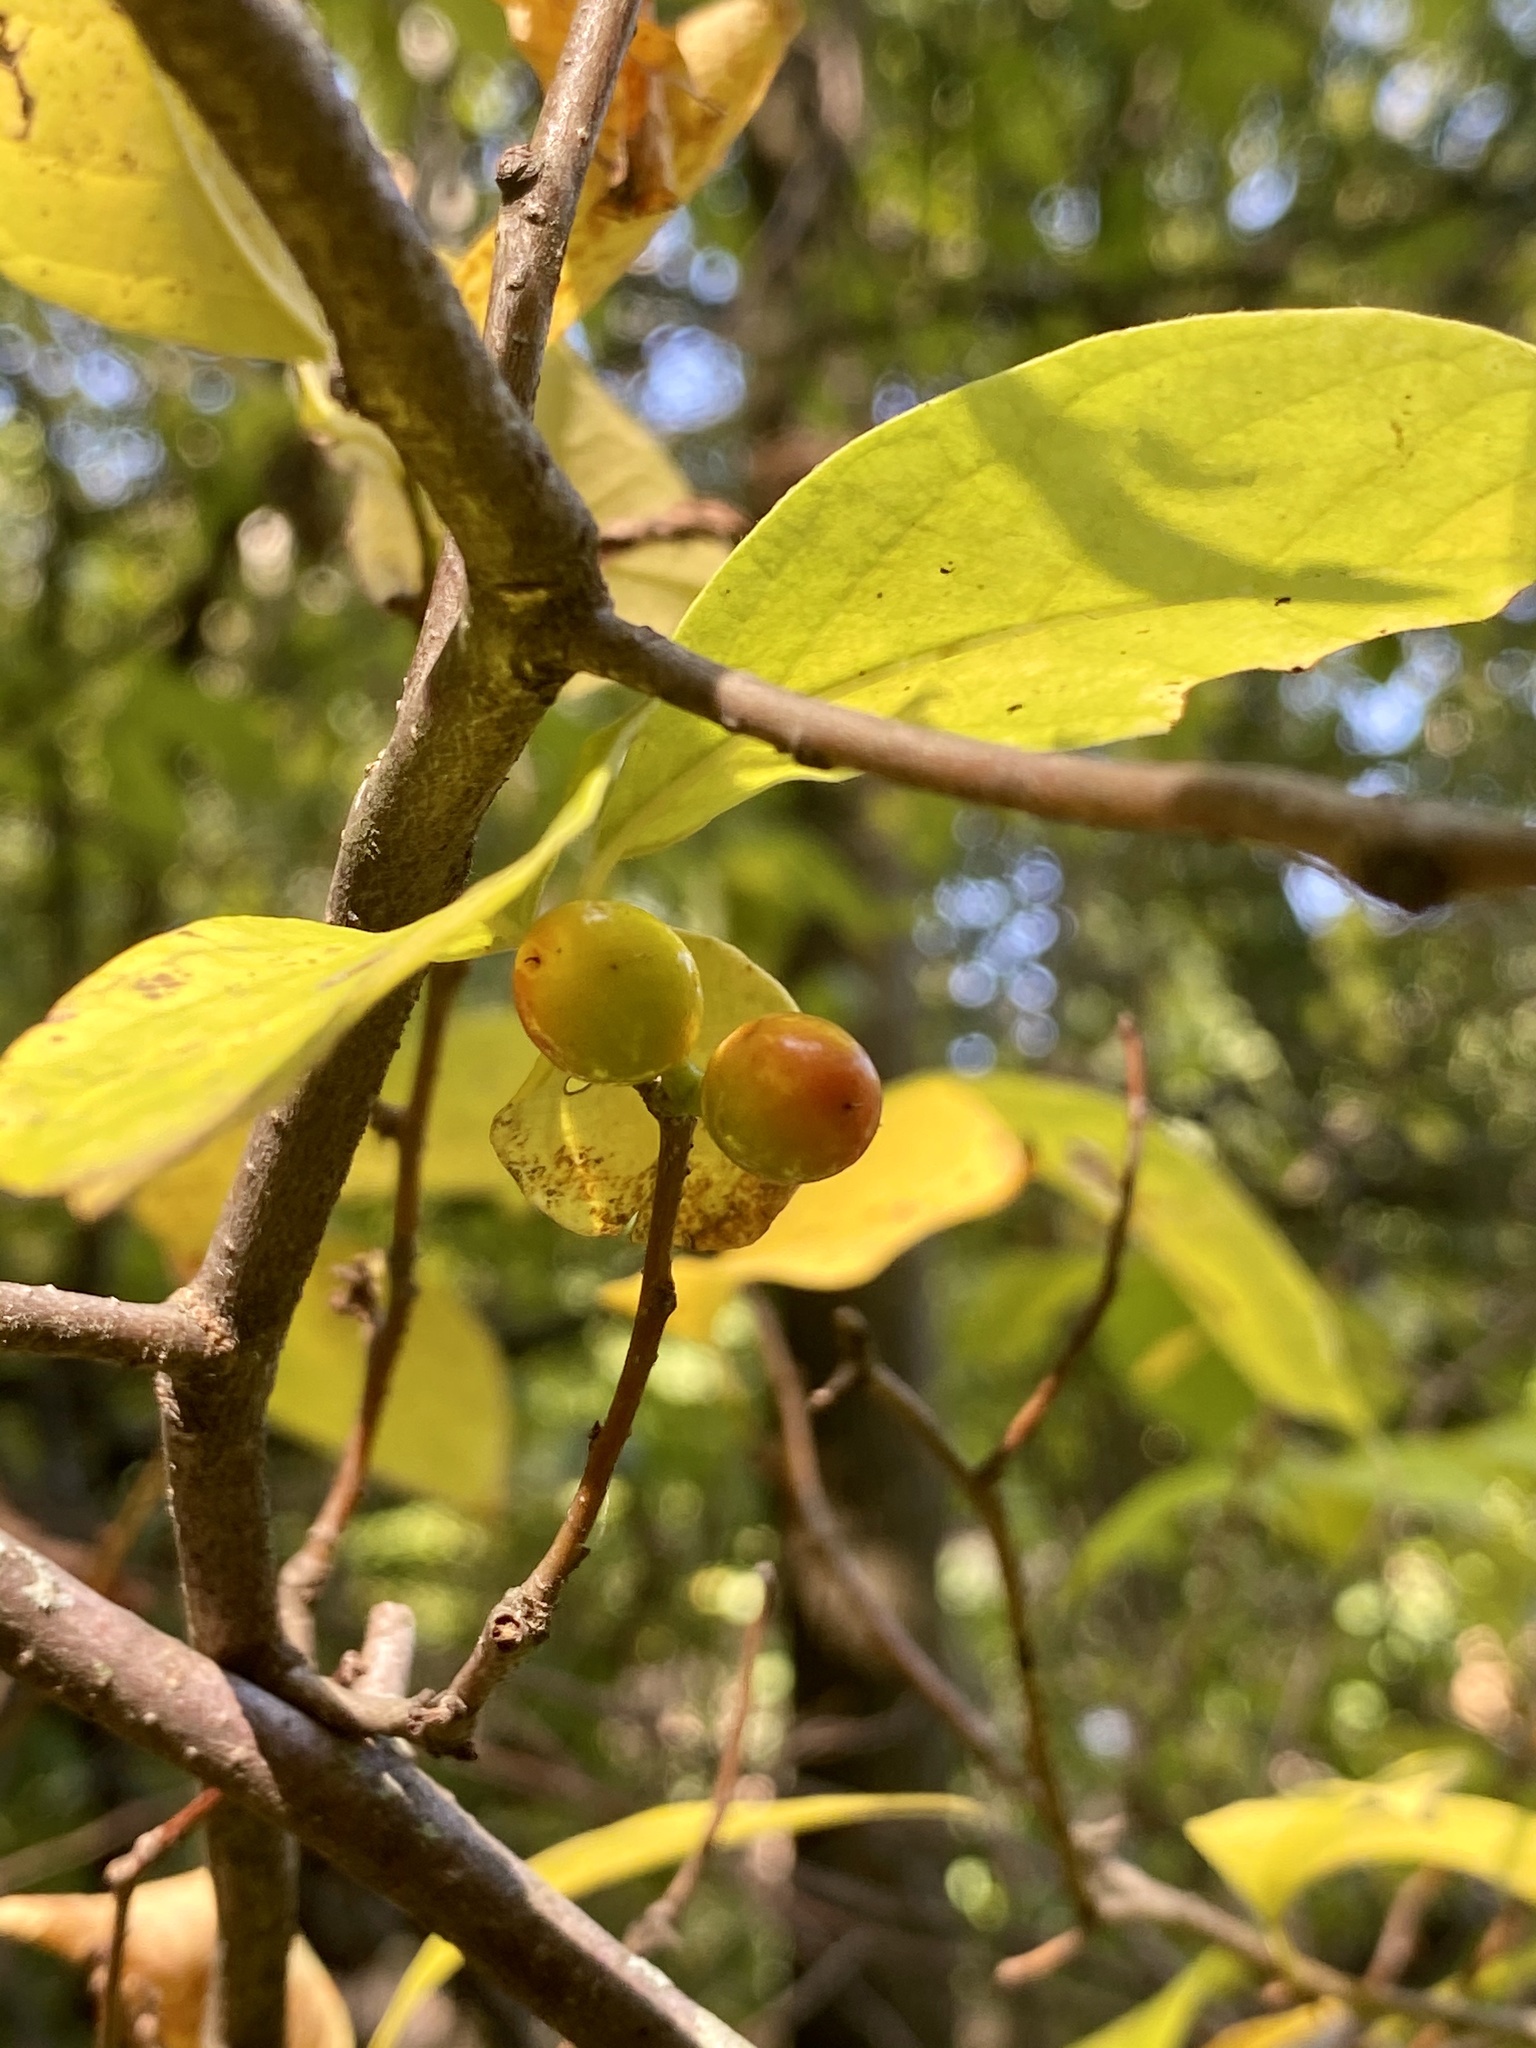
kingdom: Plantae
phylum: Tracheophyta
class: Magnoliopsida
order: Laurales
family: Lauraceae
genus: Lindera
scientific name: Lindera benzoin
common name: Spicebush
